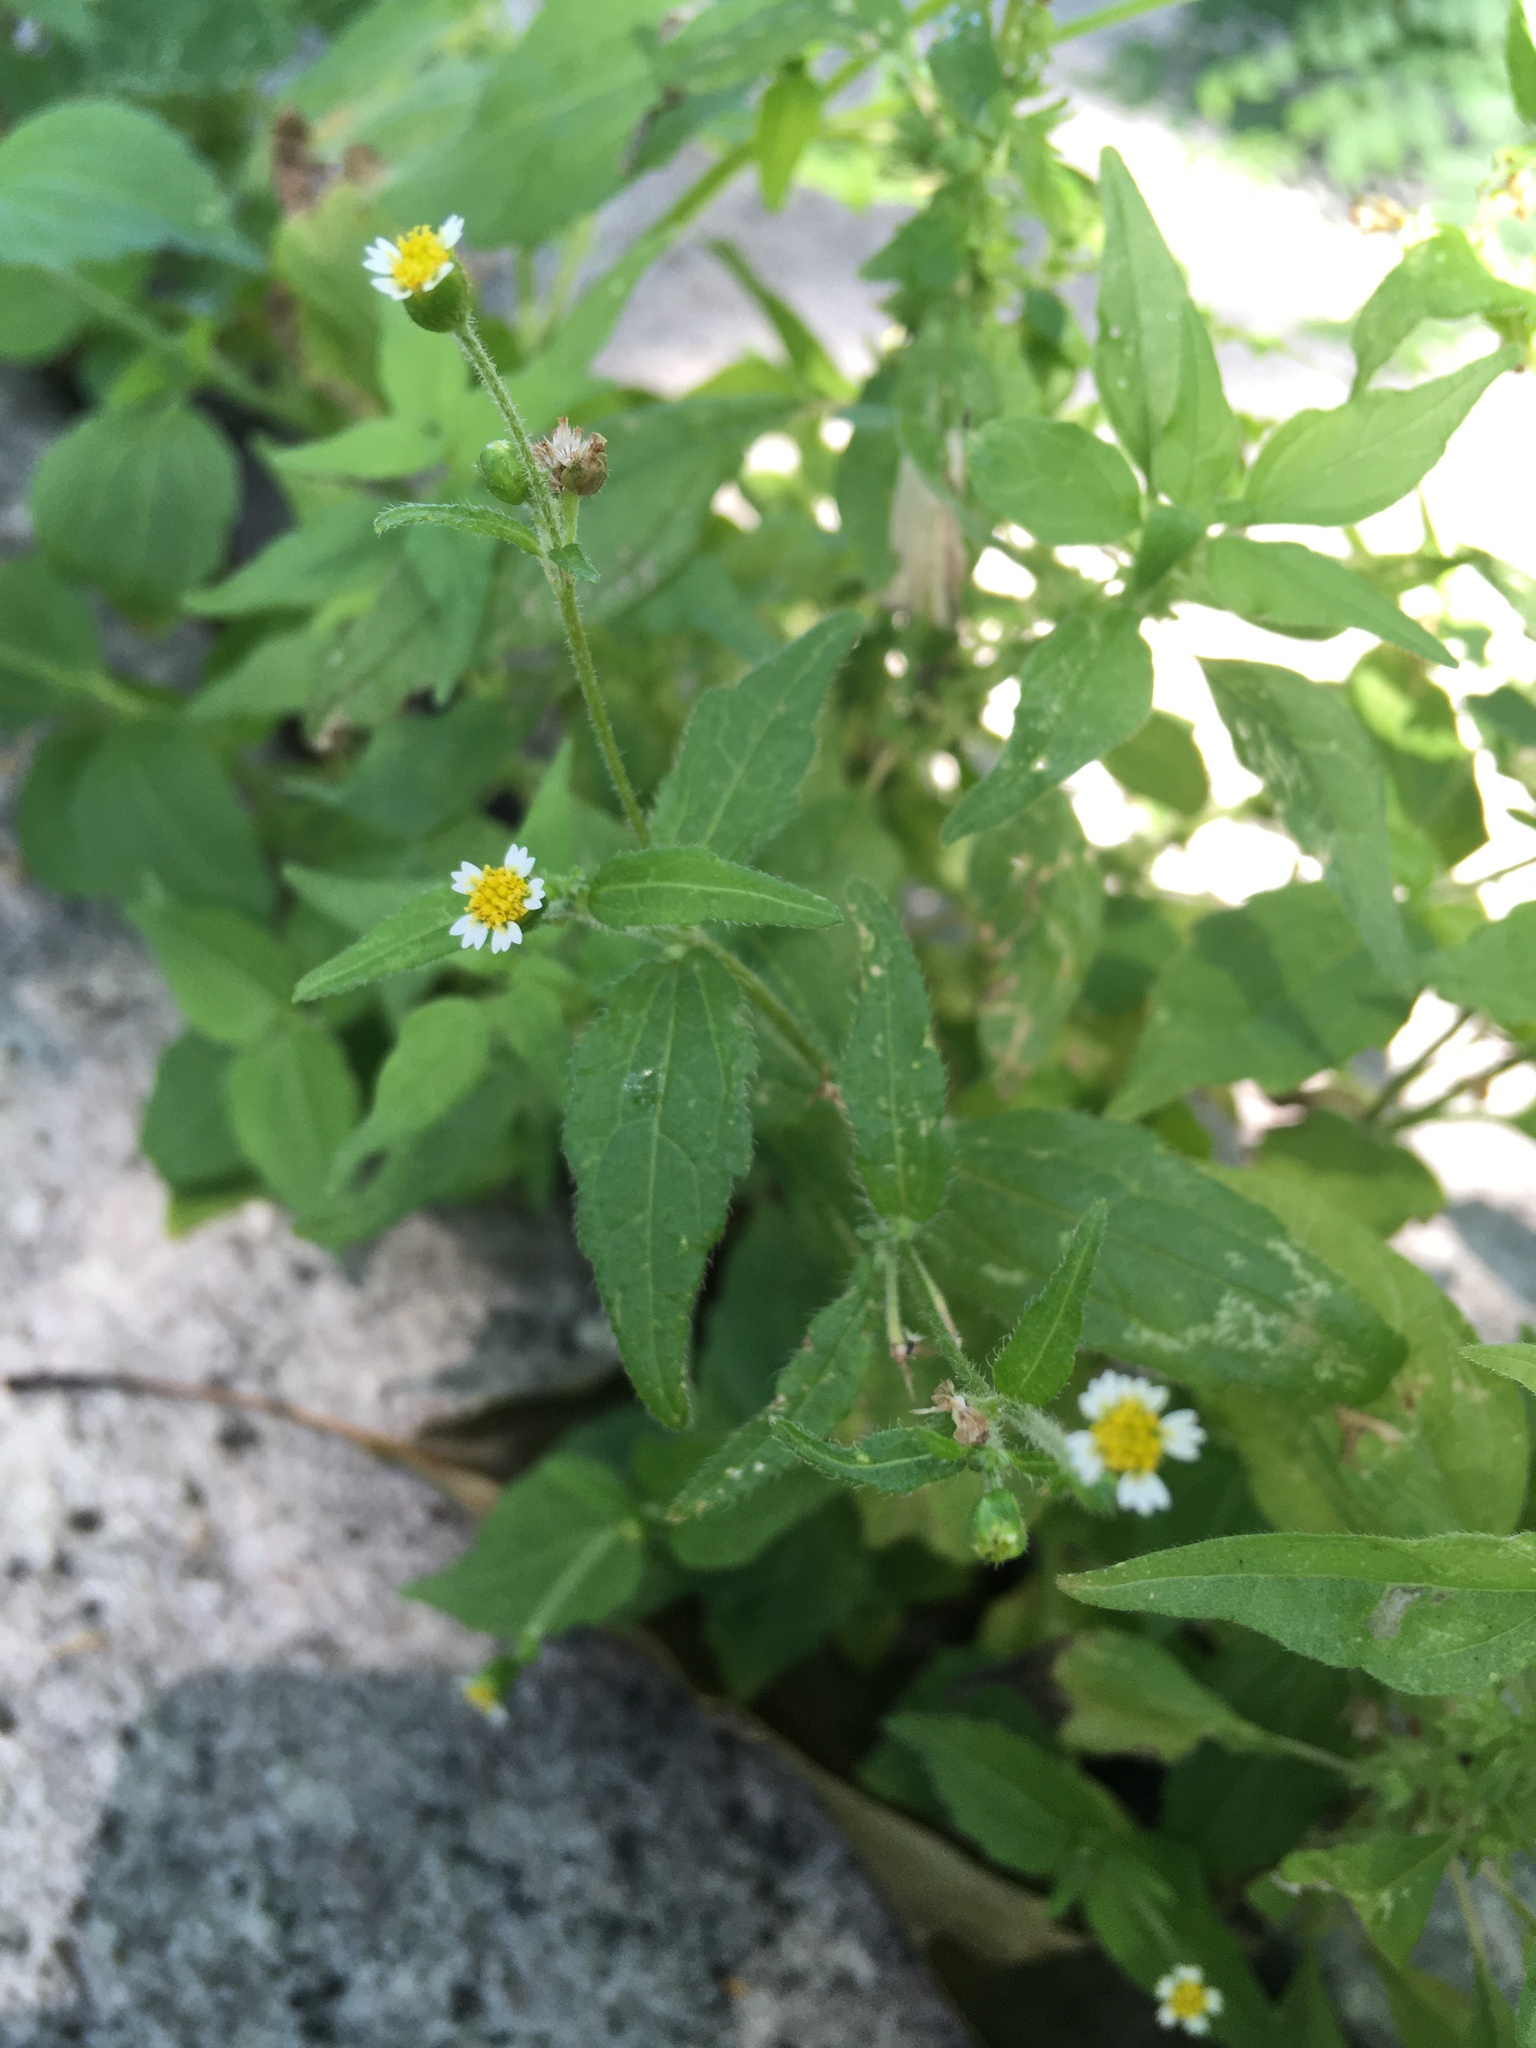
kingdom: Plantae
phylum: Tracheophyta
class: Magnoliopsida
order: Asterales
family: Asteraceae
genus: Galinsoga
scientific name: Galinsoga quadriradiata
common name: Shaggy soldier
